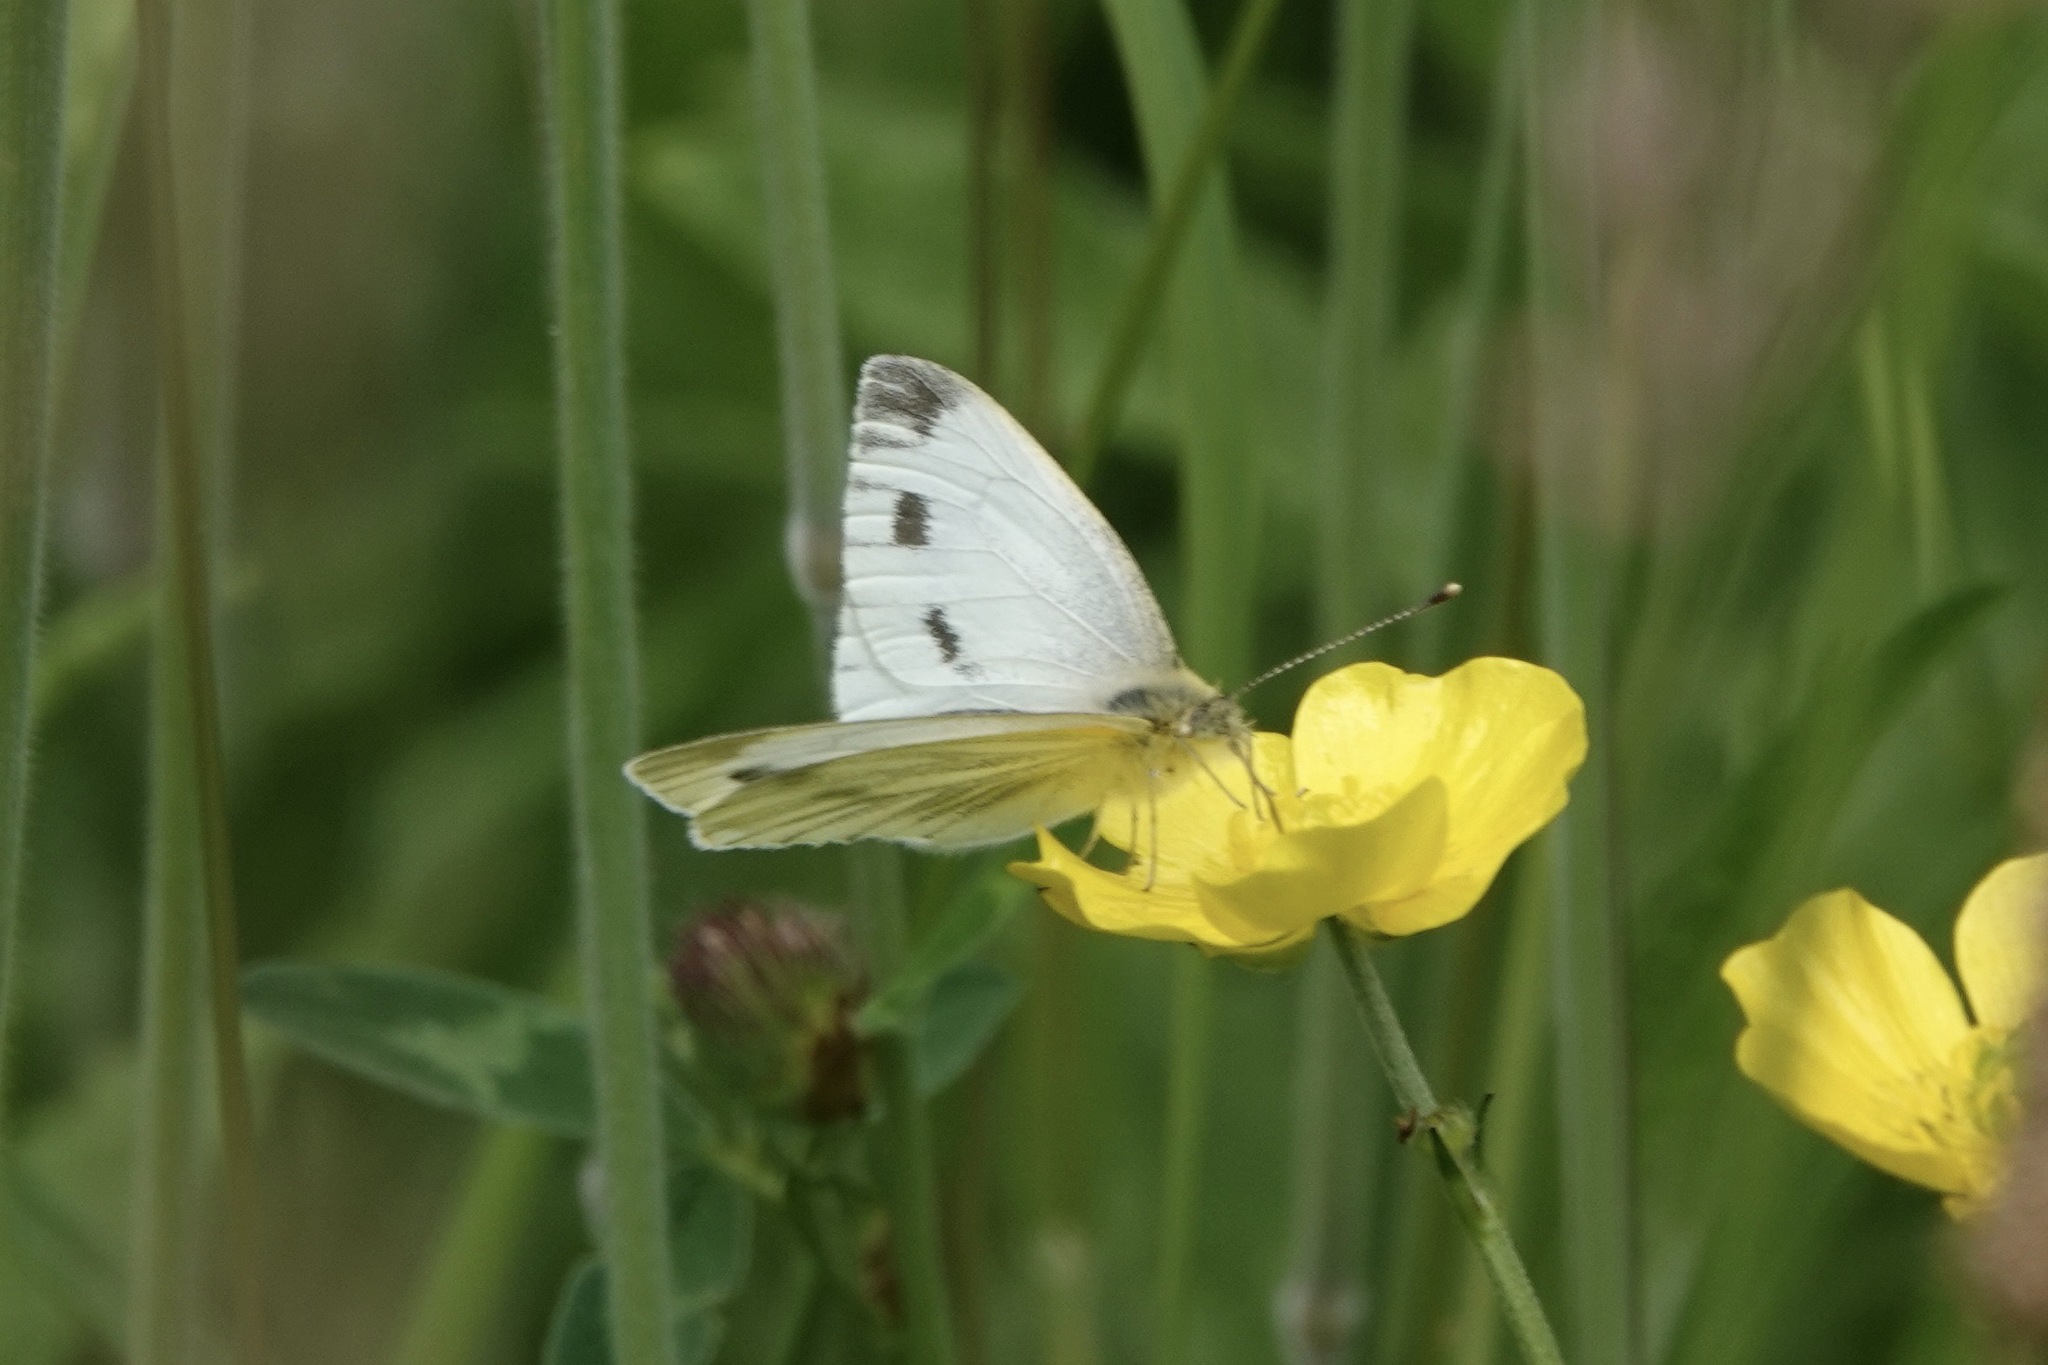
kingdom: Animalia
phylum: Arthropoda
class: Insecta
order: Lepidoptera
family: Pieridae
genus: Pieris
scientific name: Pieris napi
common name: Green-veined white
